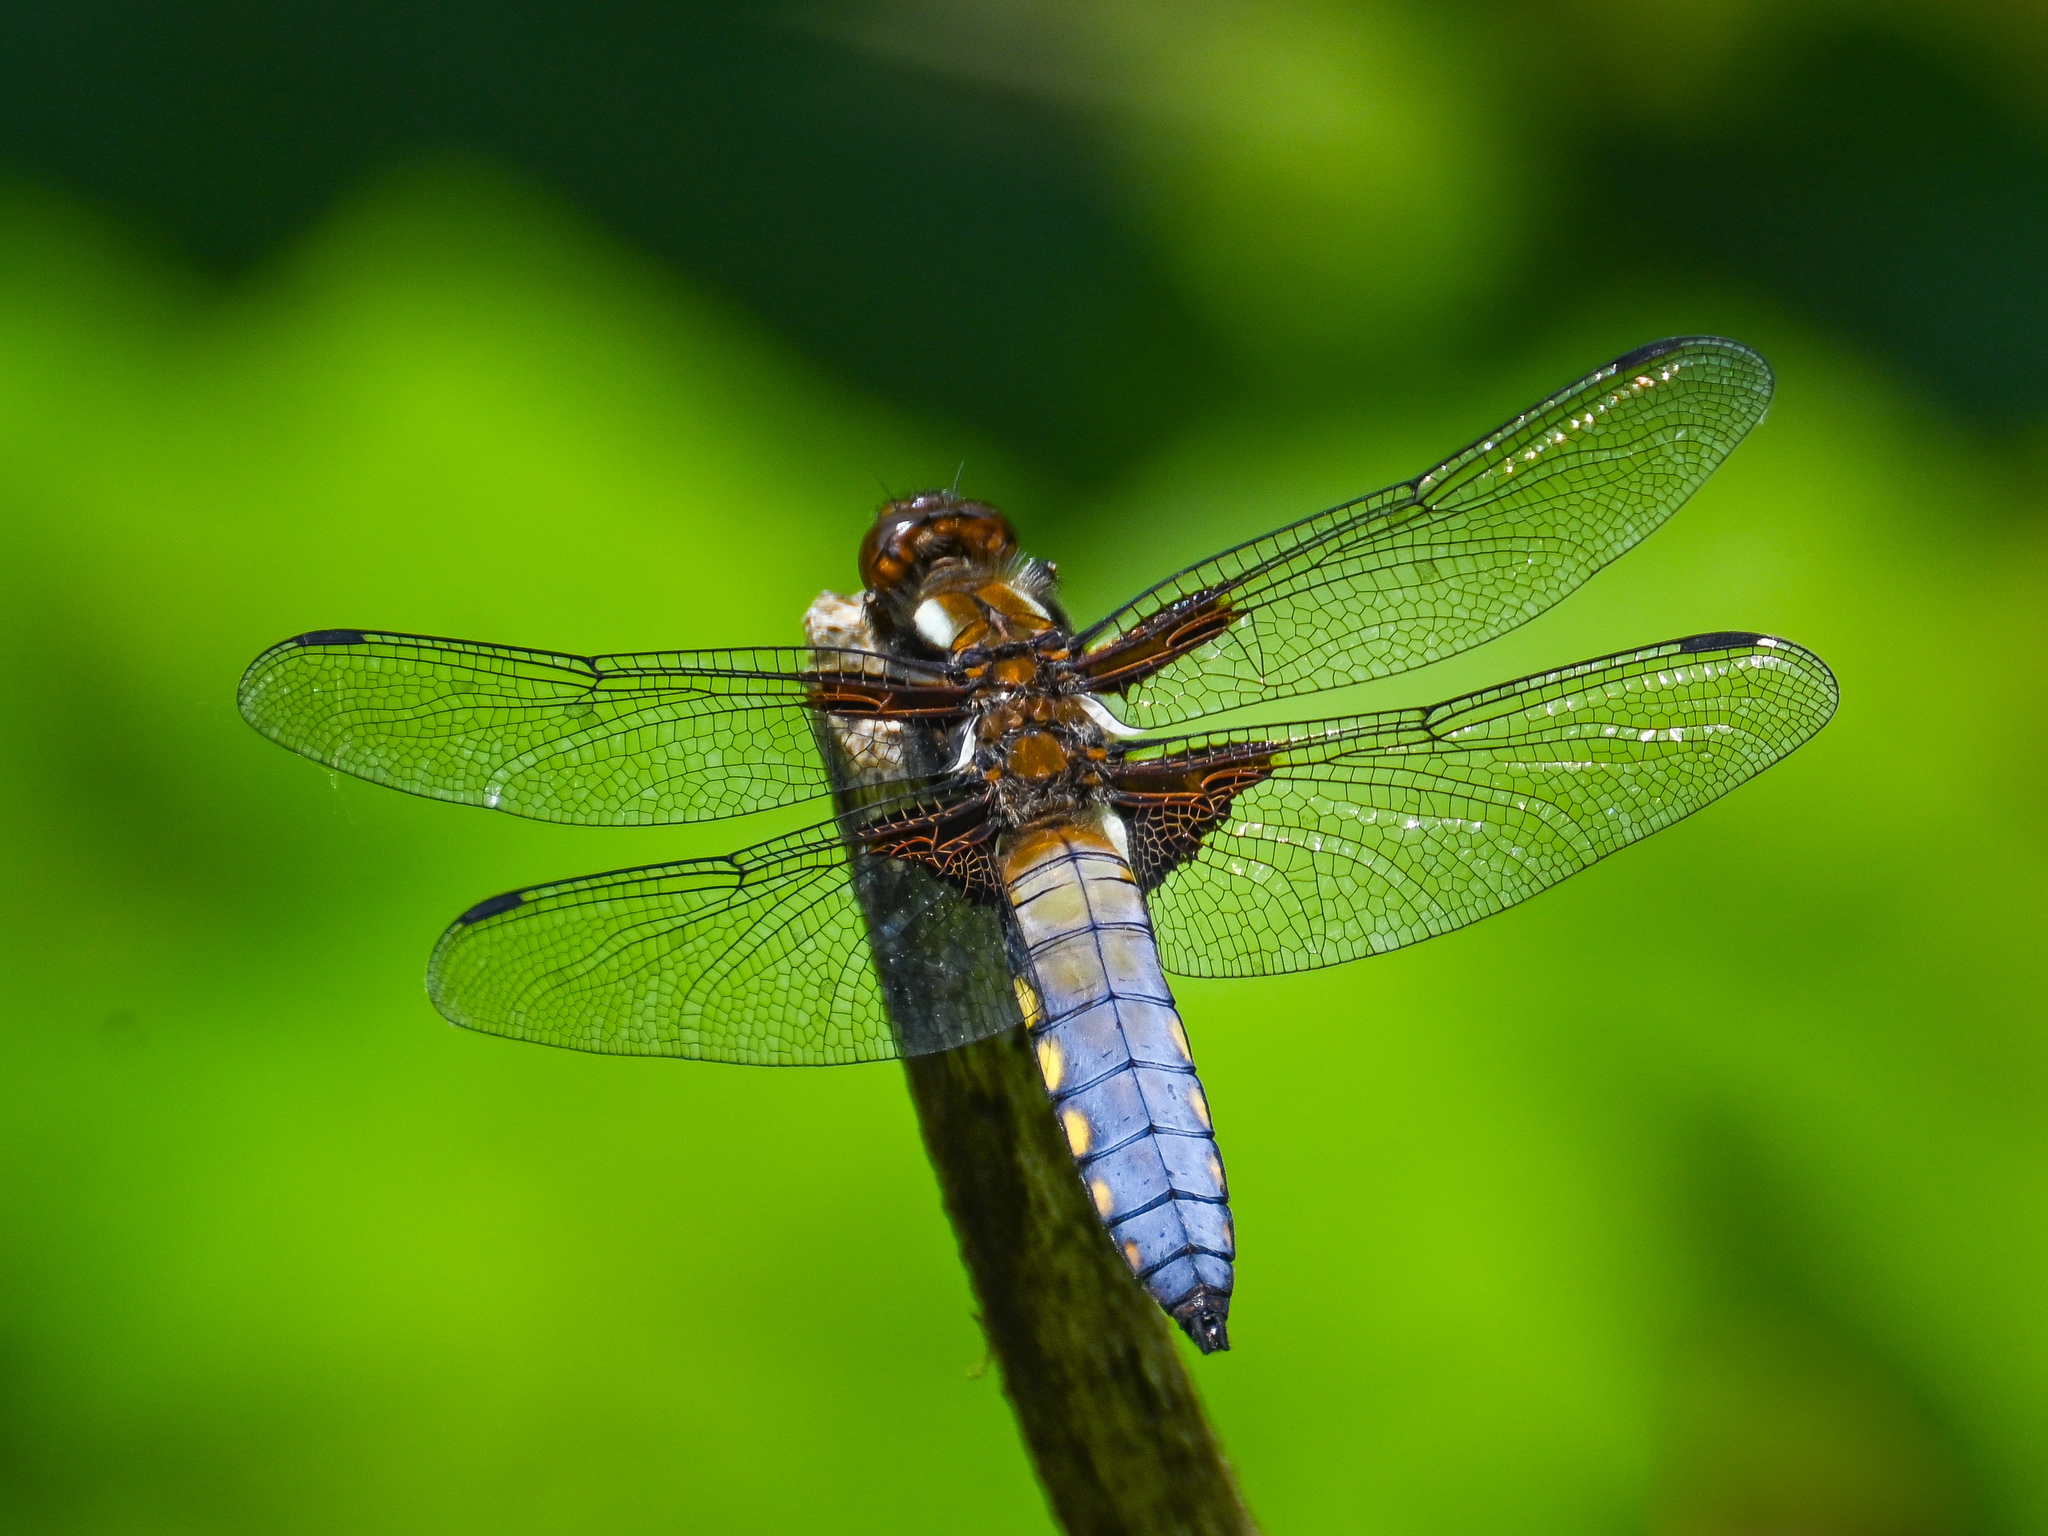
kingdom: Animalia
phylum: Arthropoda
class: Insecta
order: Odonata
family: Libellulidae
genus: Libellula
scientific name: Libellula depressa
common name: Broad-bodied chaser
